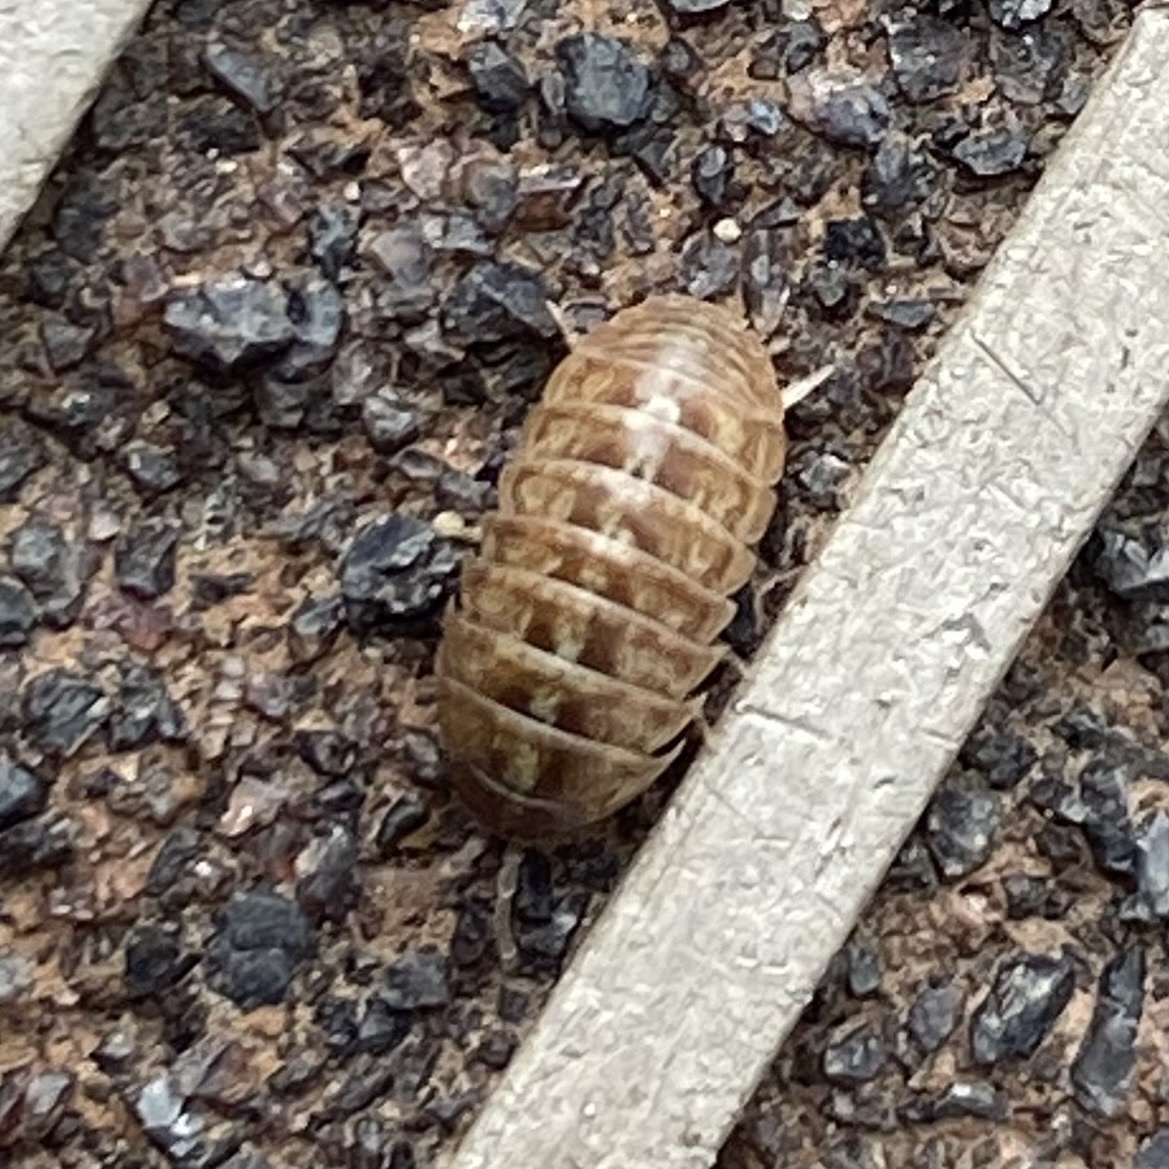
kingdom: Animalia
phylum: Arthropoda
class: Malacostraca
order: Isopoda
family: Armadillidiidae
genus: Armadillidium
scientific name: Armadillidium vulgare
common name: Common pill woodlouse
